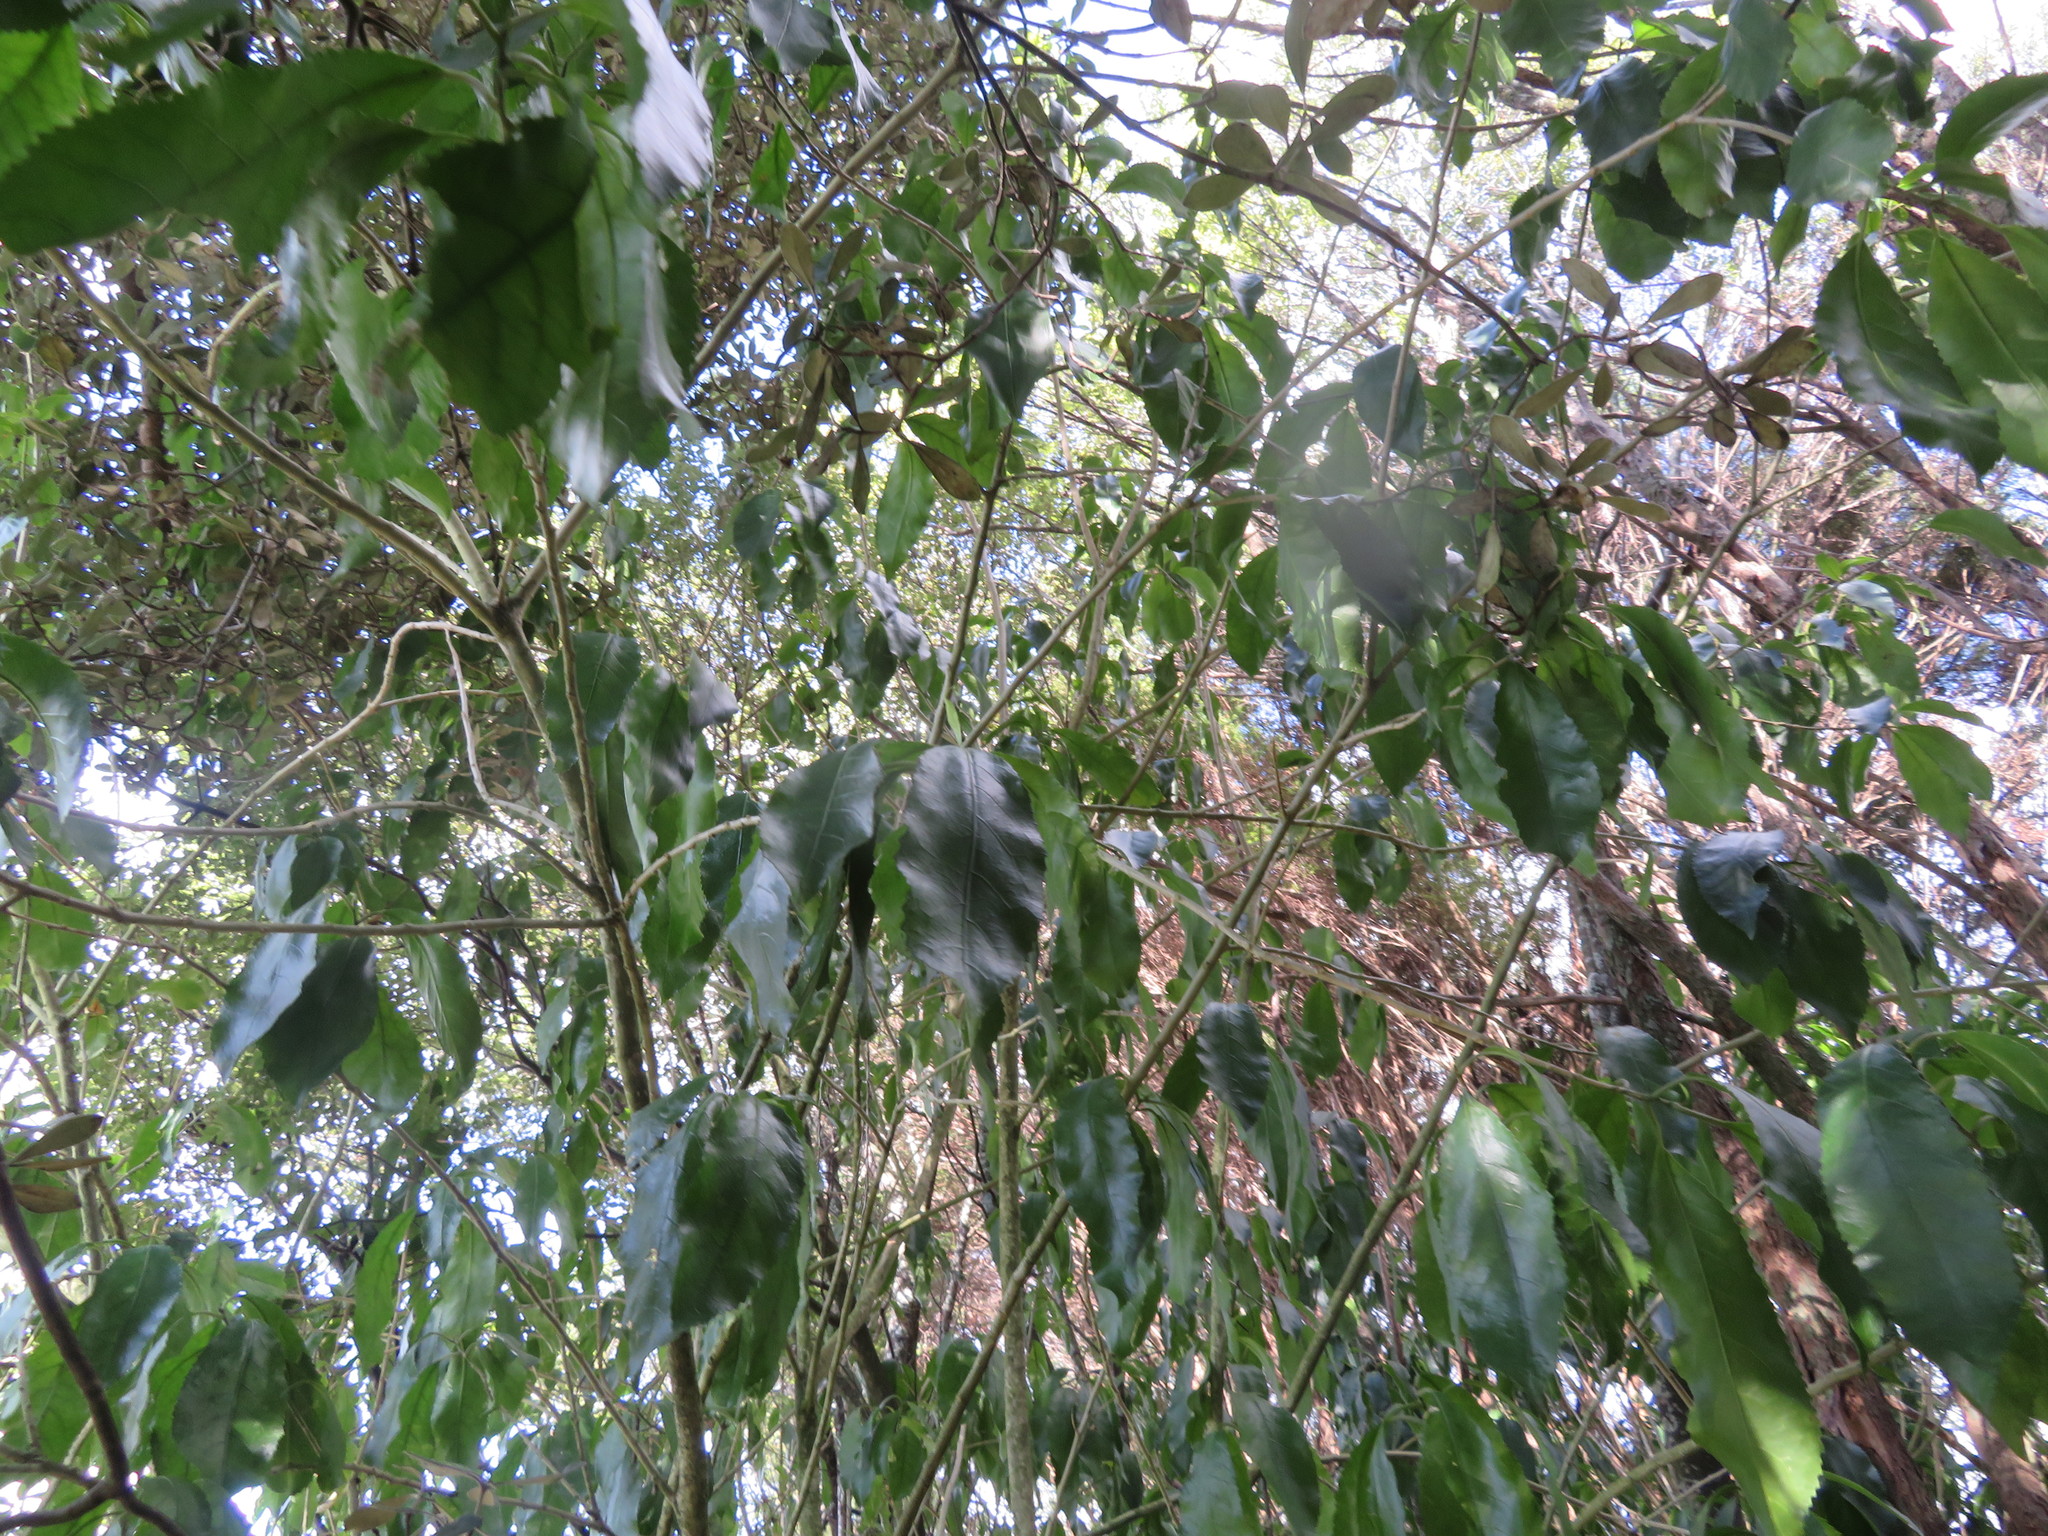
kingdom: Plantae
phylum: Tracheophyta
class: Magnoliopsida
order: Malpighiales
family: Violaceae
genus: Melicytus
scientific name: Melicytus ramiflorus
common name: Mahoe
